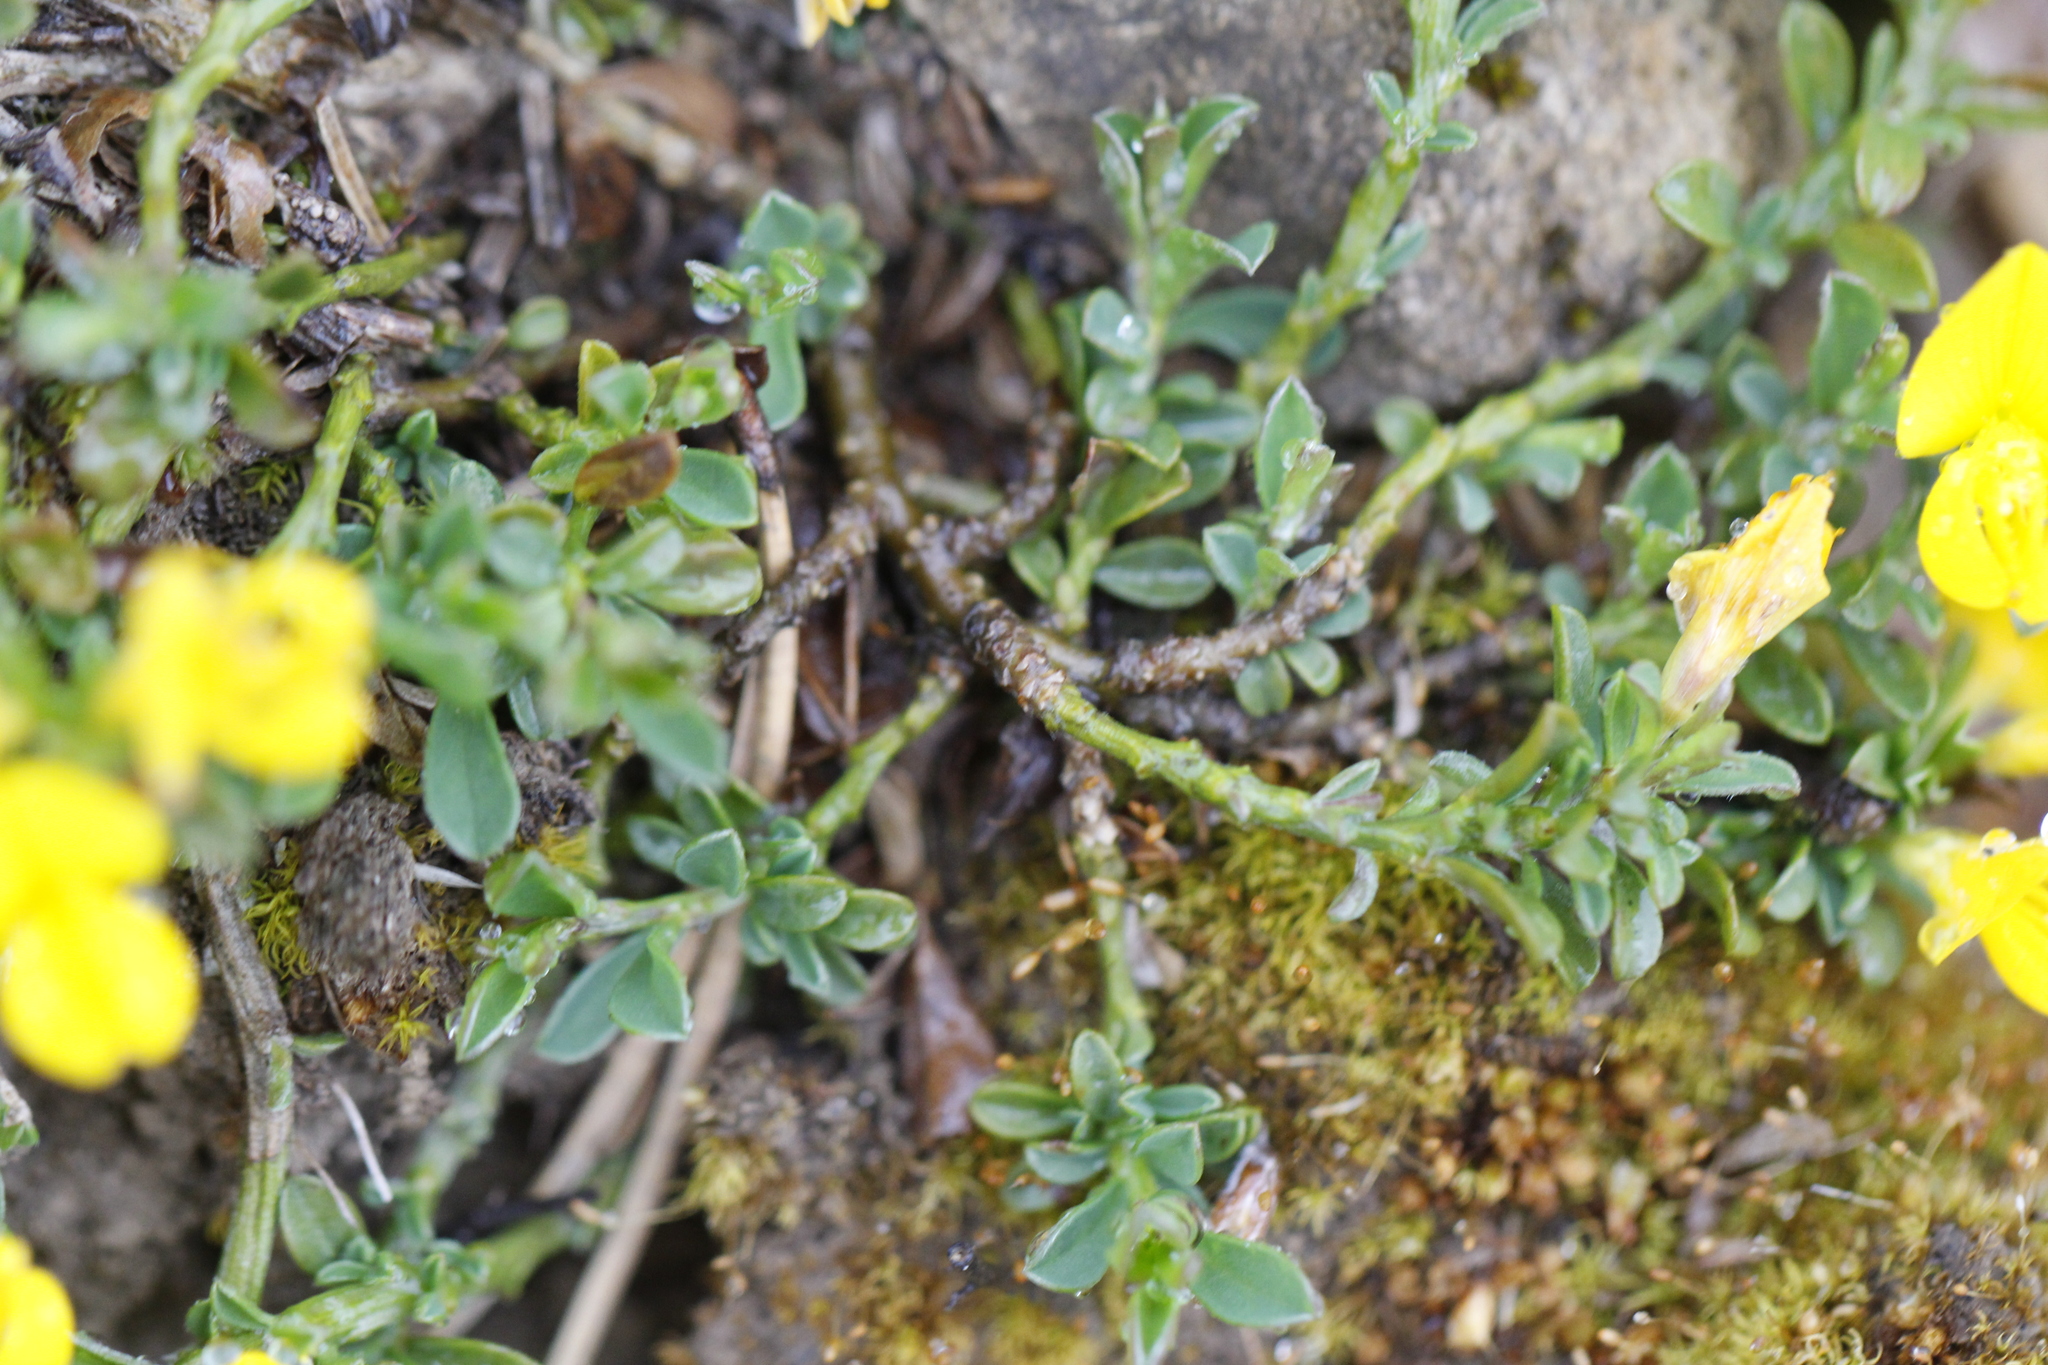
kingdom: Plantae
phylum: Tracheophyta
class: Magnoliopsida
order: Fabales
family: Fabaceae
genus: Genista
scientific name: Genista pilosa
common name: Hairy greenweed
